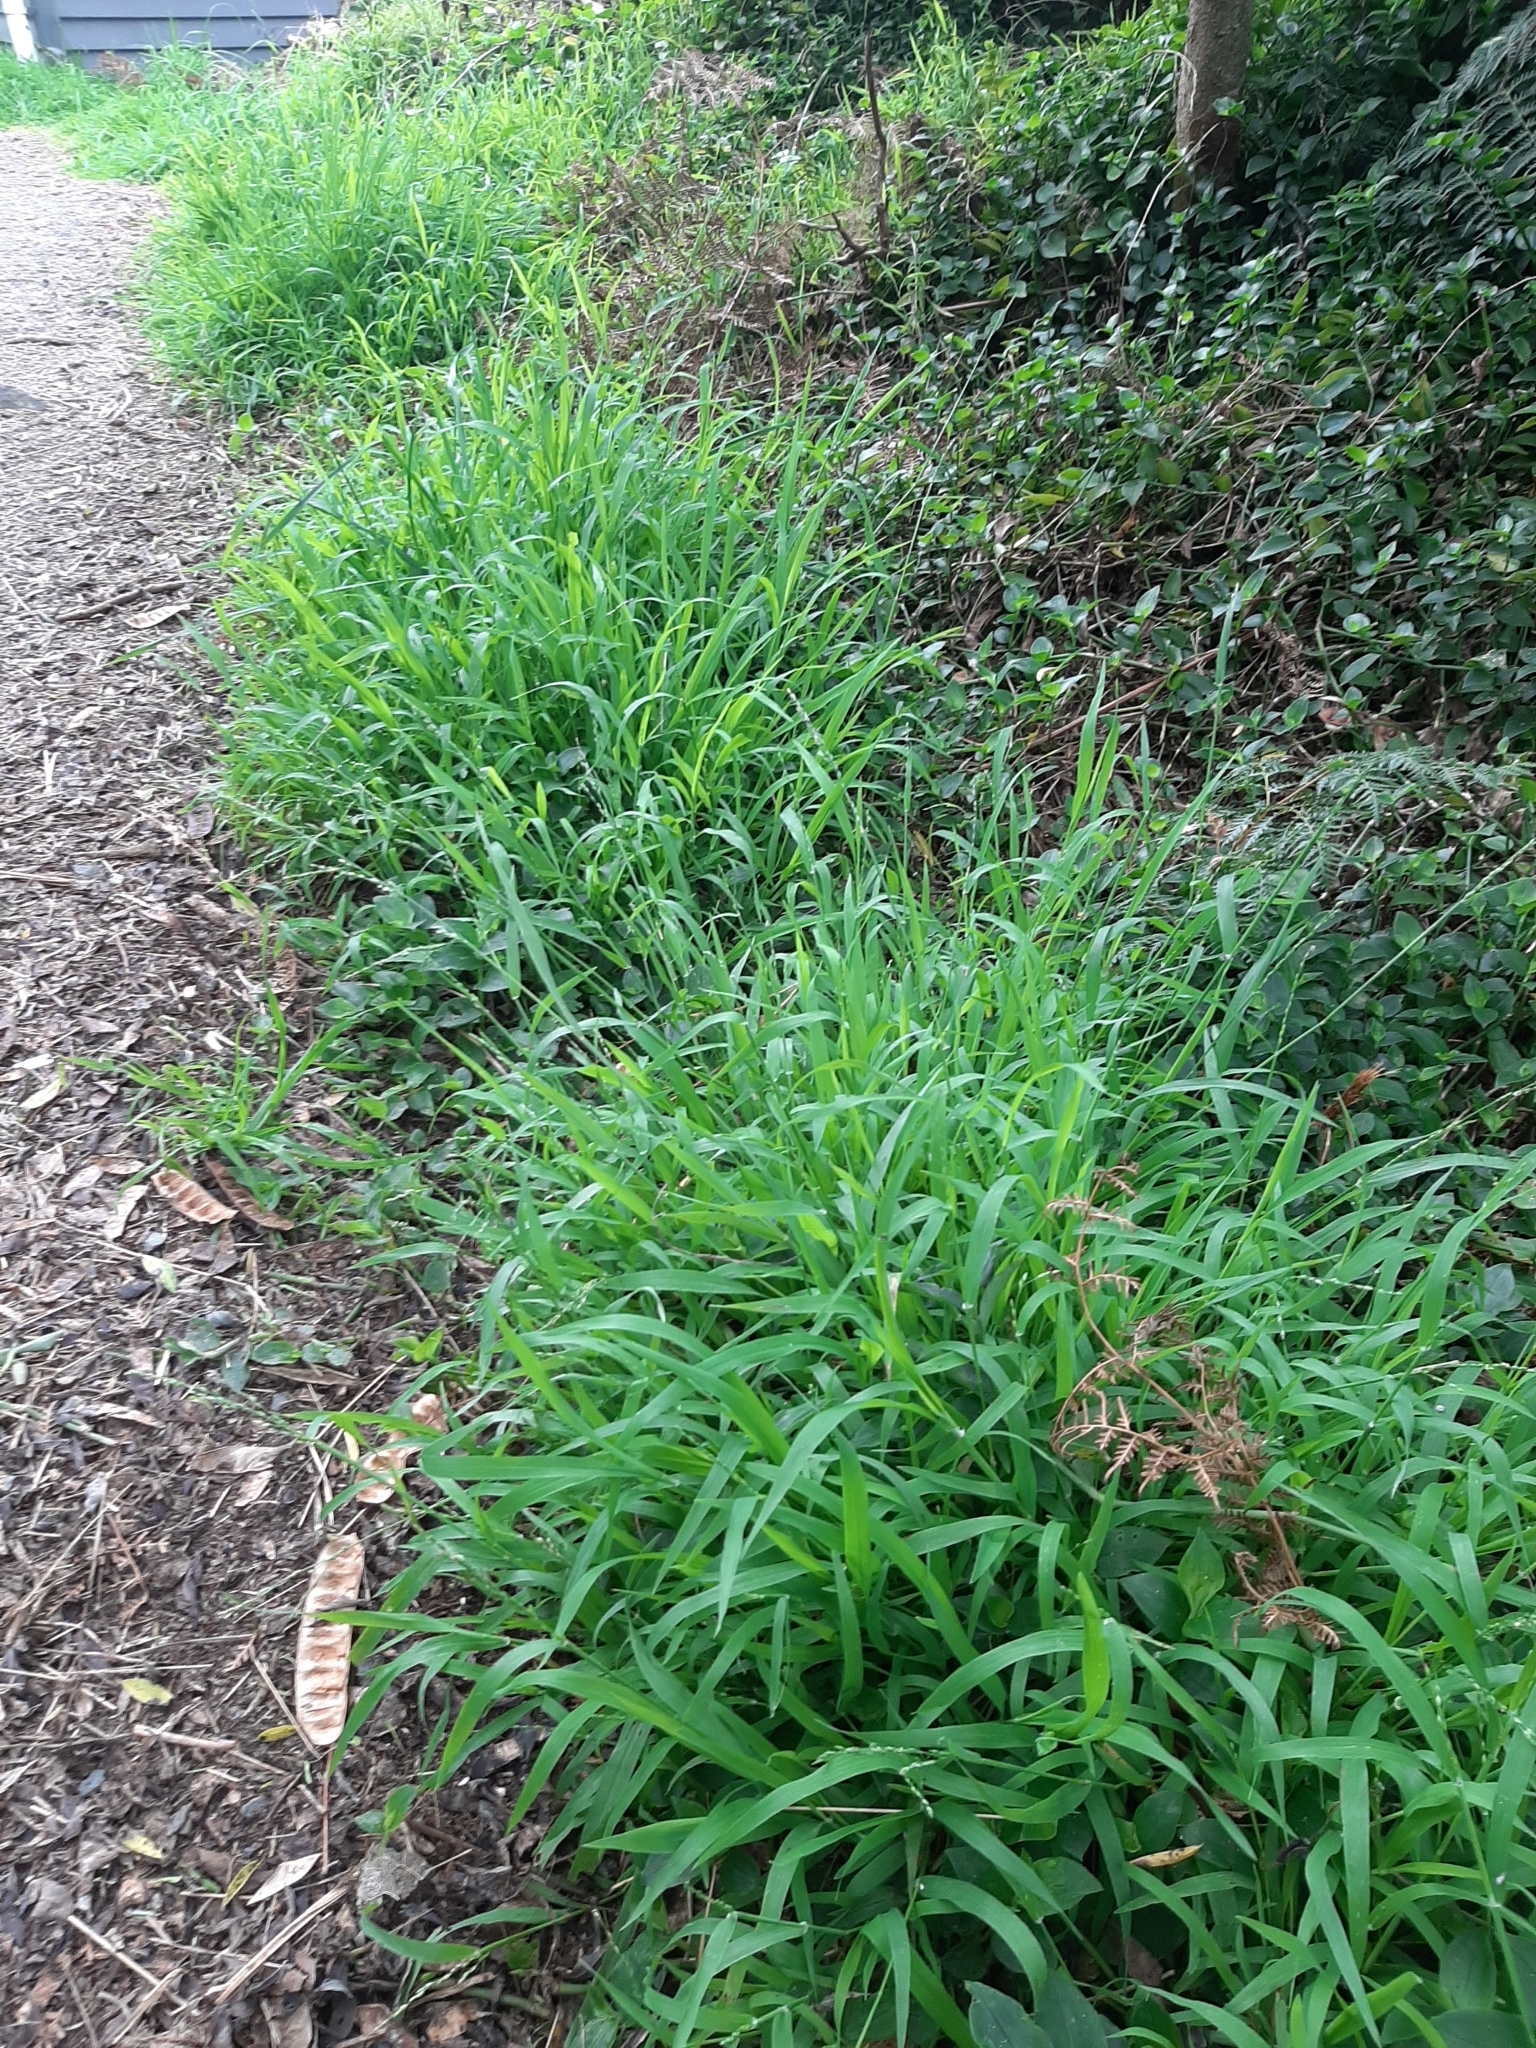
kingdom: Plantae
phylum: Tracheophyta
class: Liliopsida
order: Poales
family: Poaceae
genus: Ehrharta
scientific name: Ehrharta erecta
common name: Panic veldtgrass
